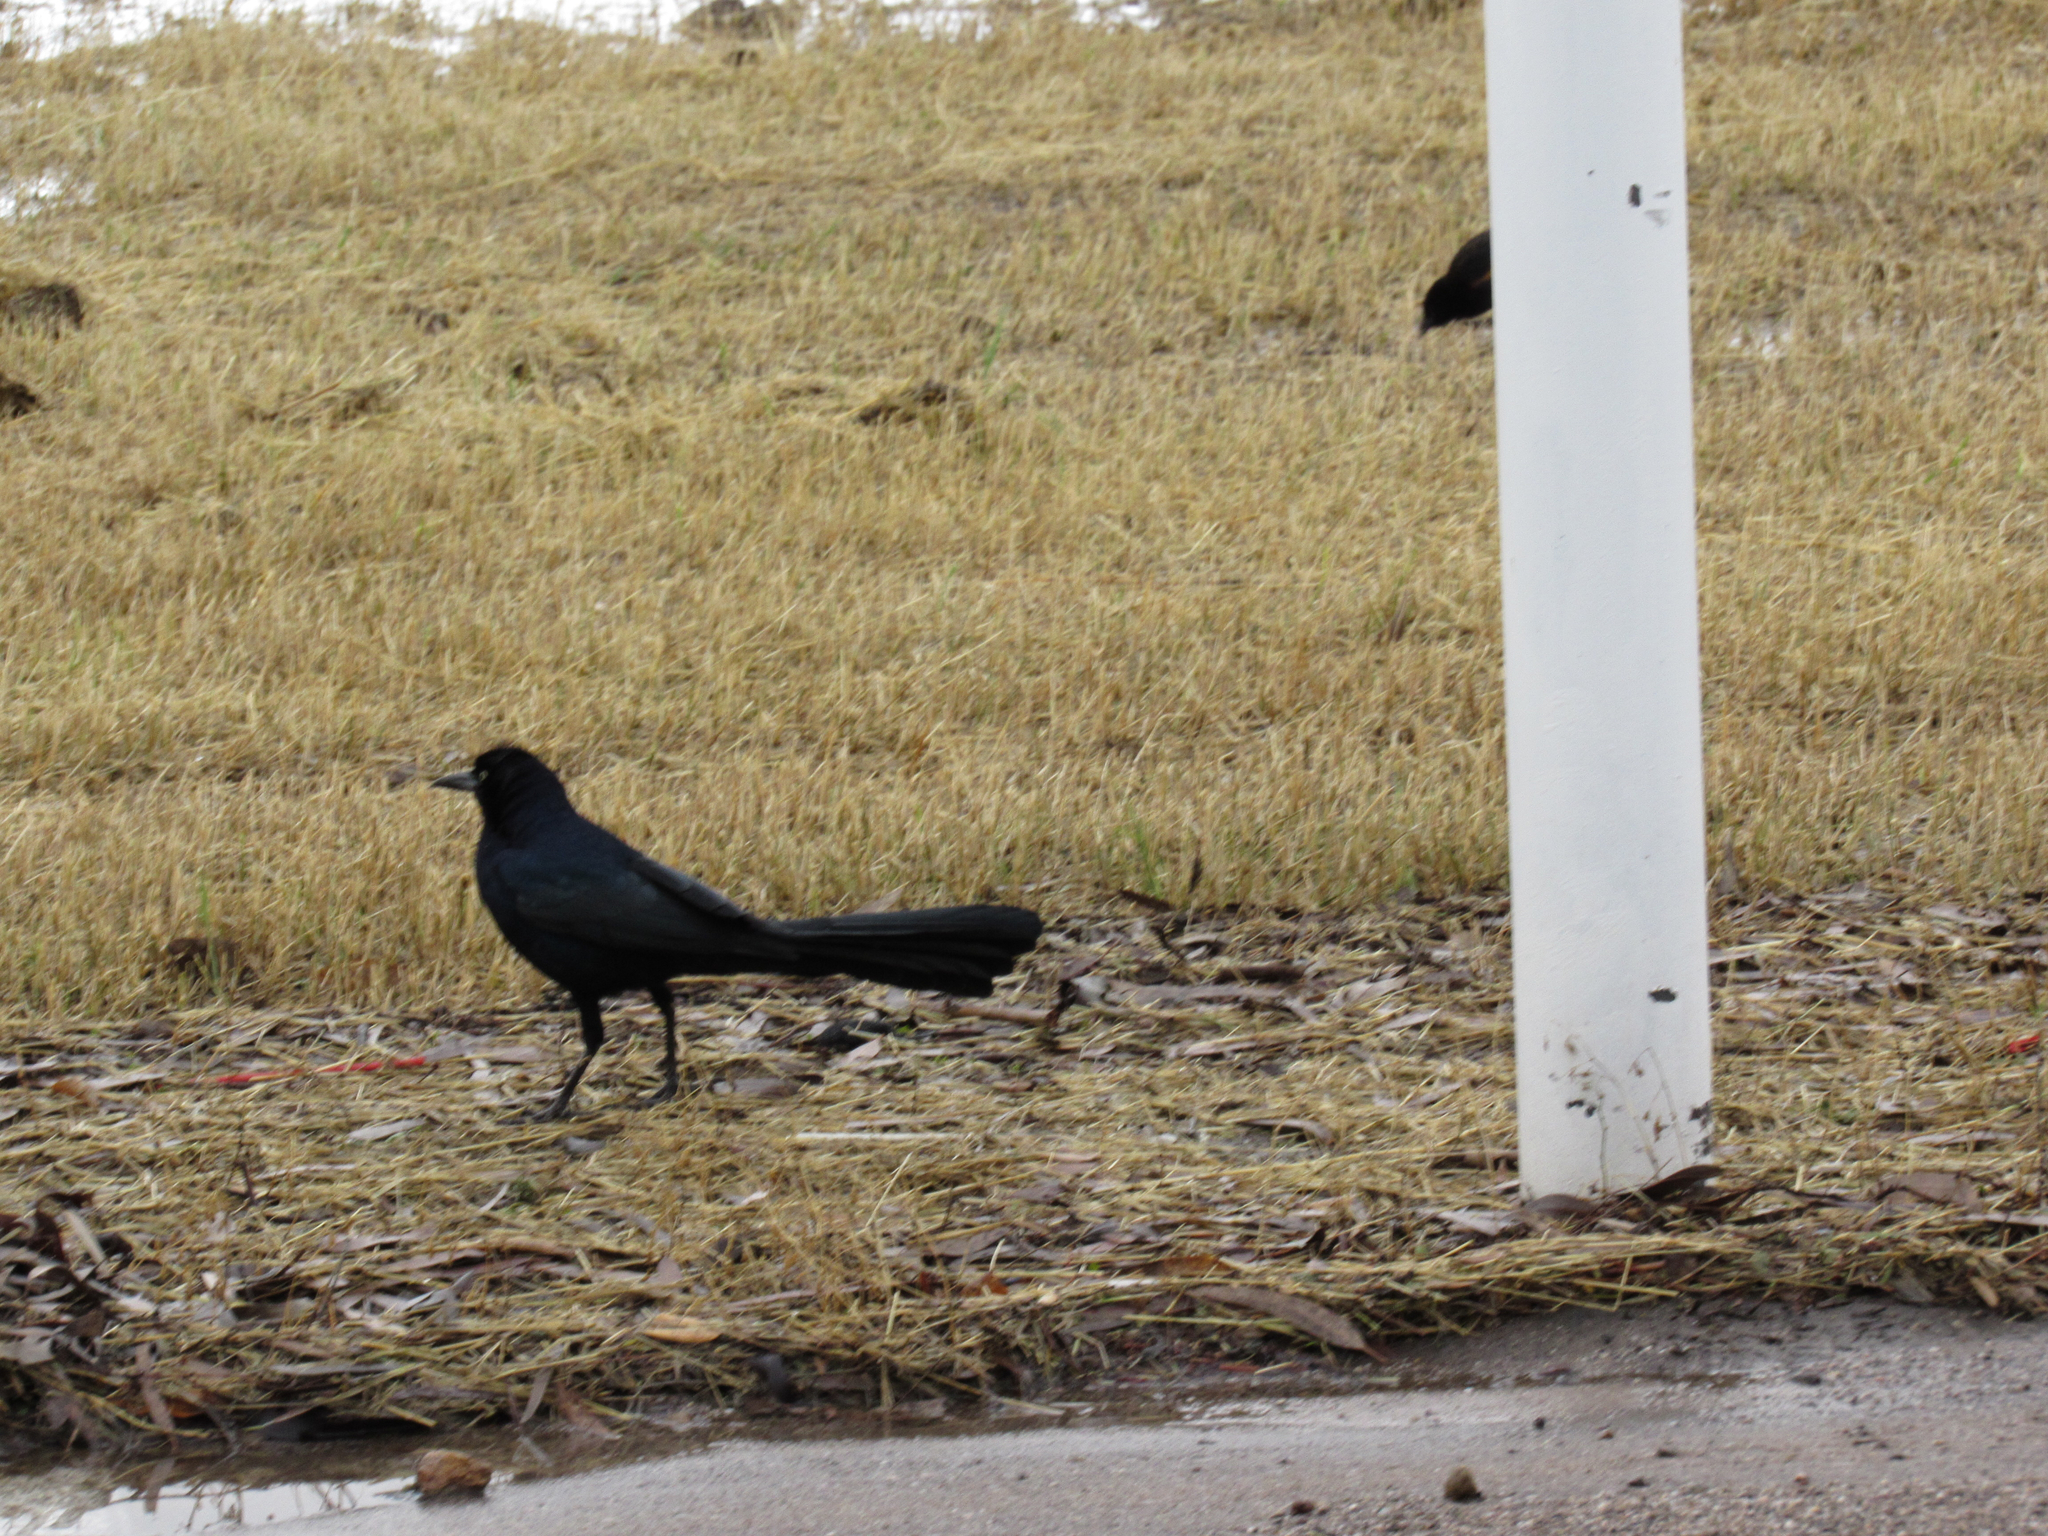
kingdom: Animalia
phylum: Chordata
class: Aves
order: Passeriformes
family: Icteridae
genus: Quiscalus
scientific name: Quiscalus mexicanus
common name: Great-tailed grackle
